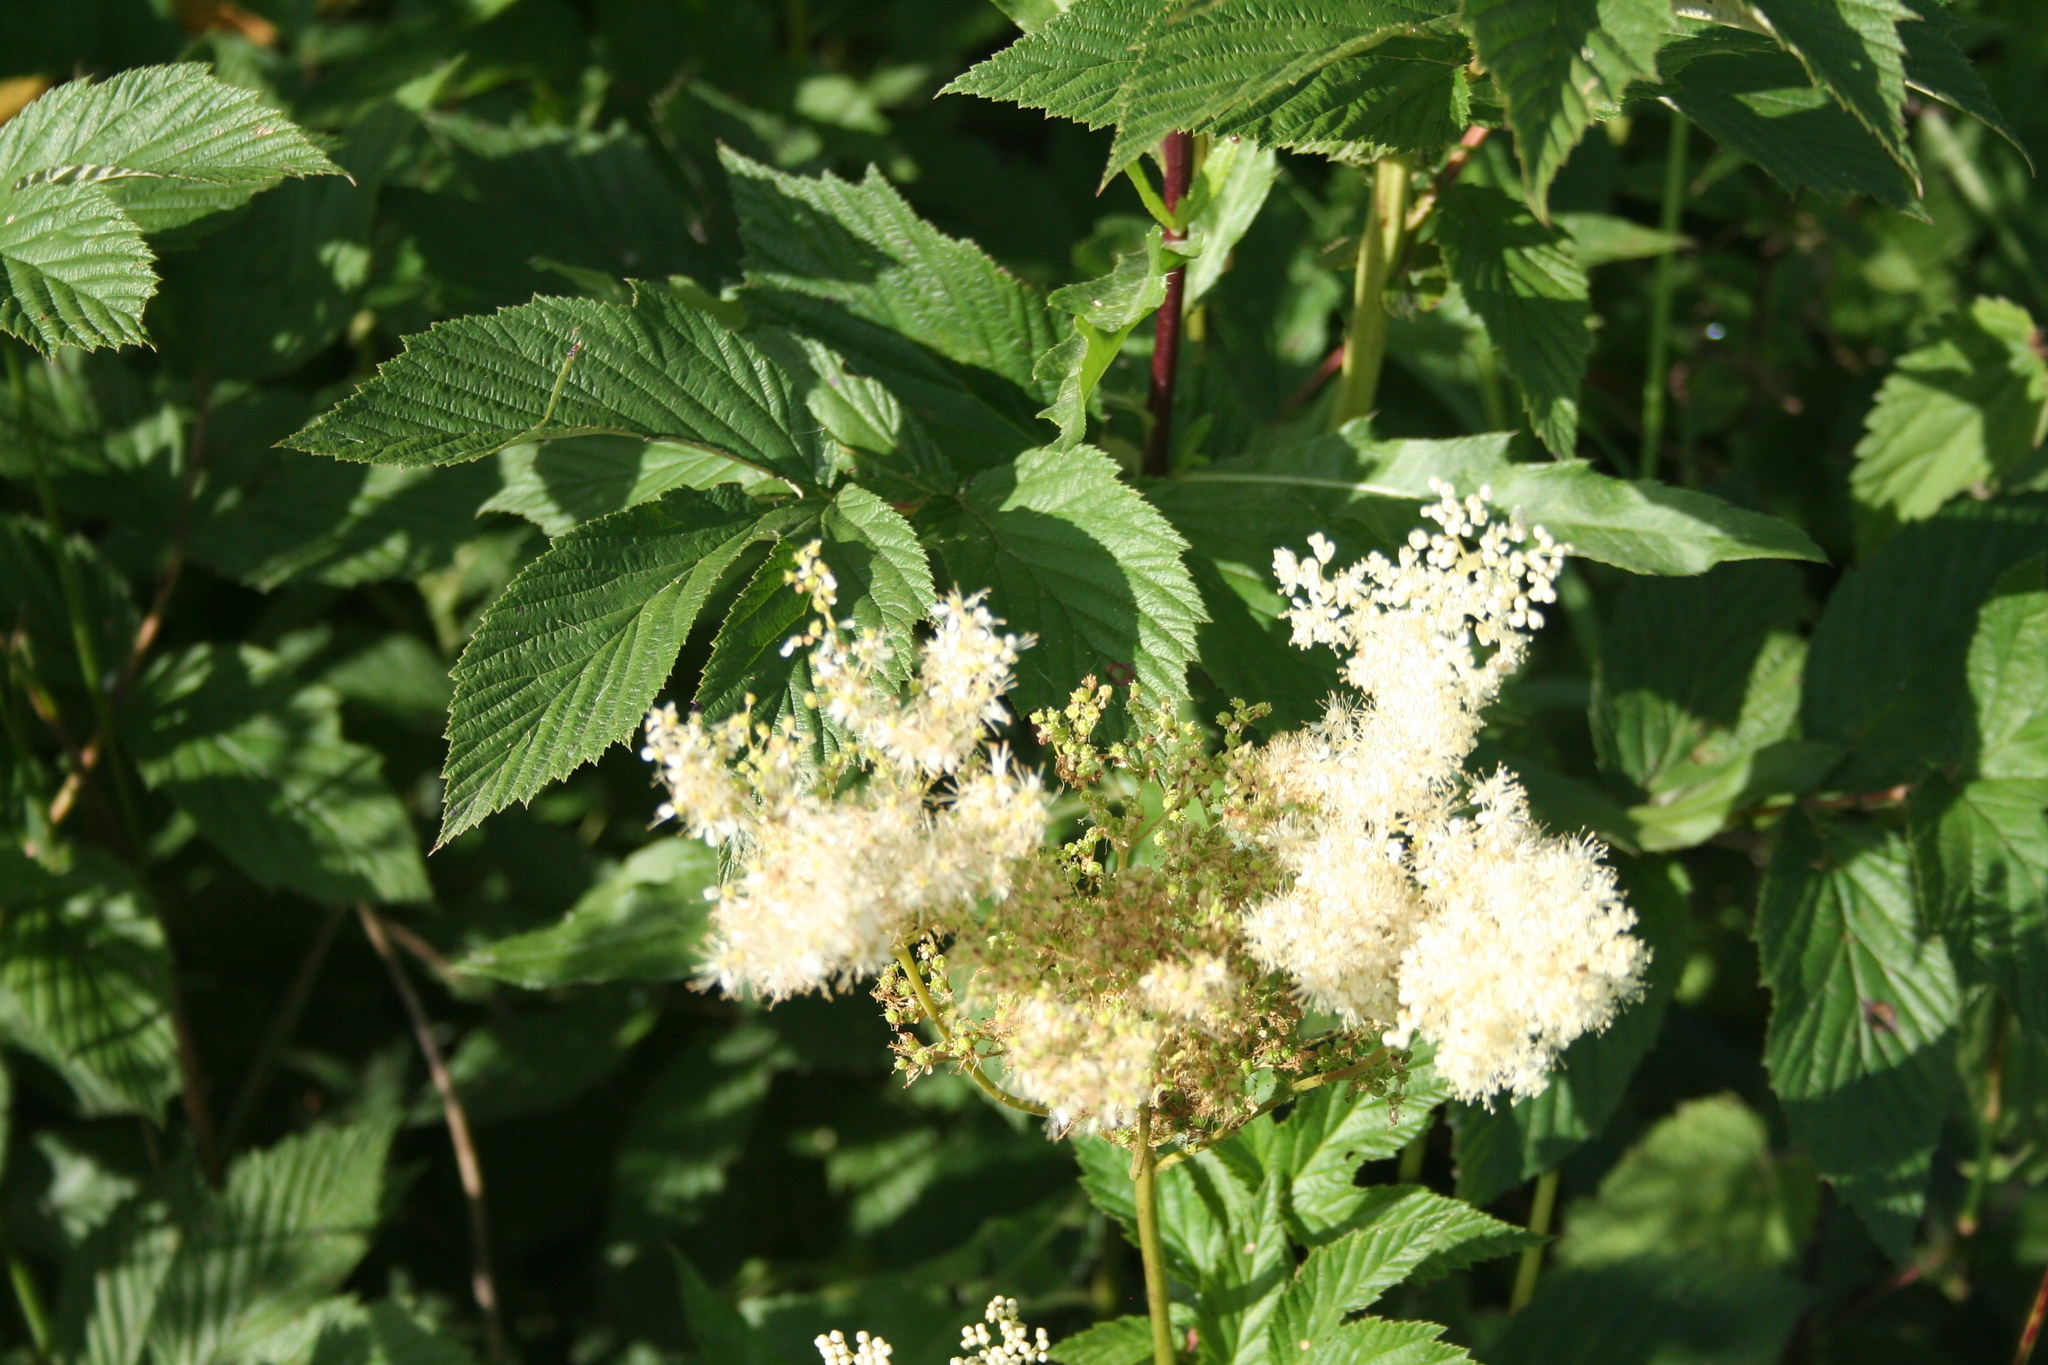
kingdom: Plantae
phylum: Tracheophyta
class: Magnoliopsida
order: Rosales
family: Rosaceae
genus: Filipendula
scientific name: Filipendula ulmaria
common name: Meadowsweet
